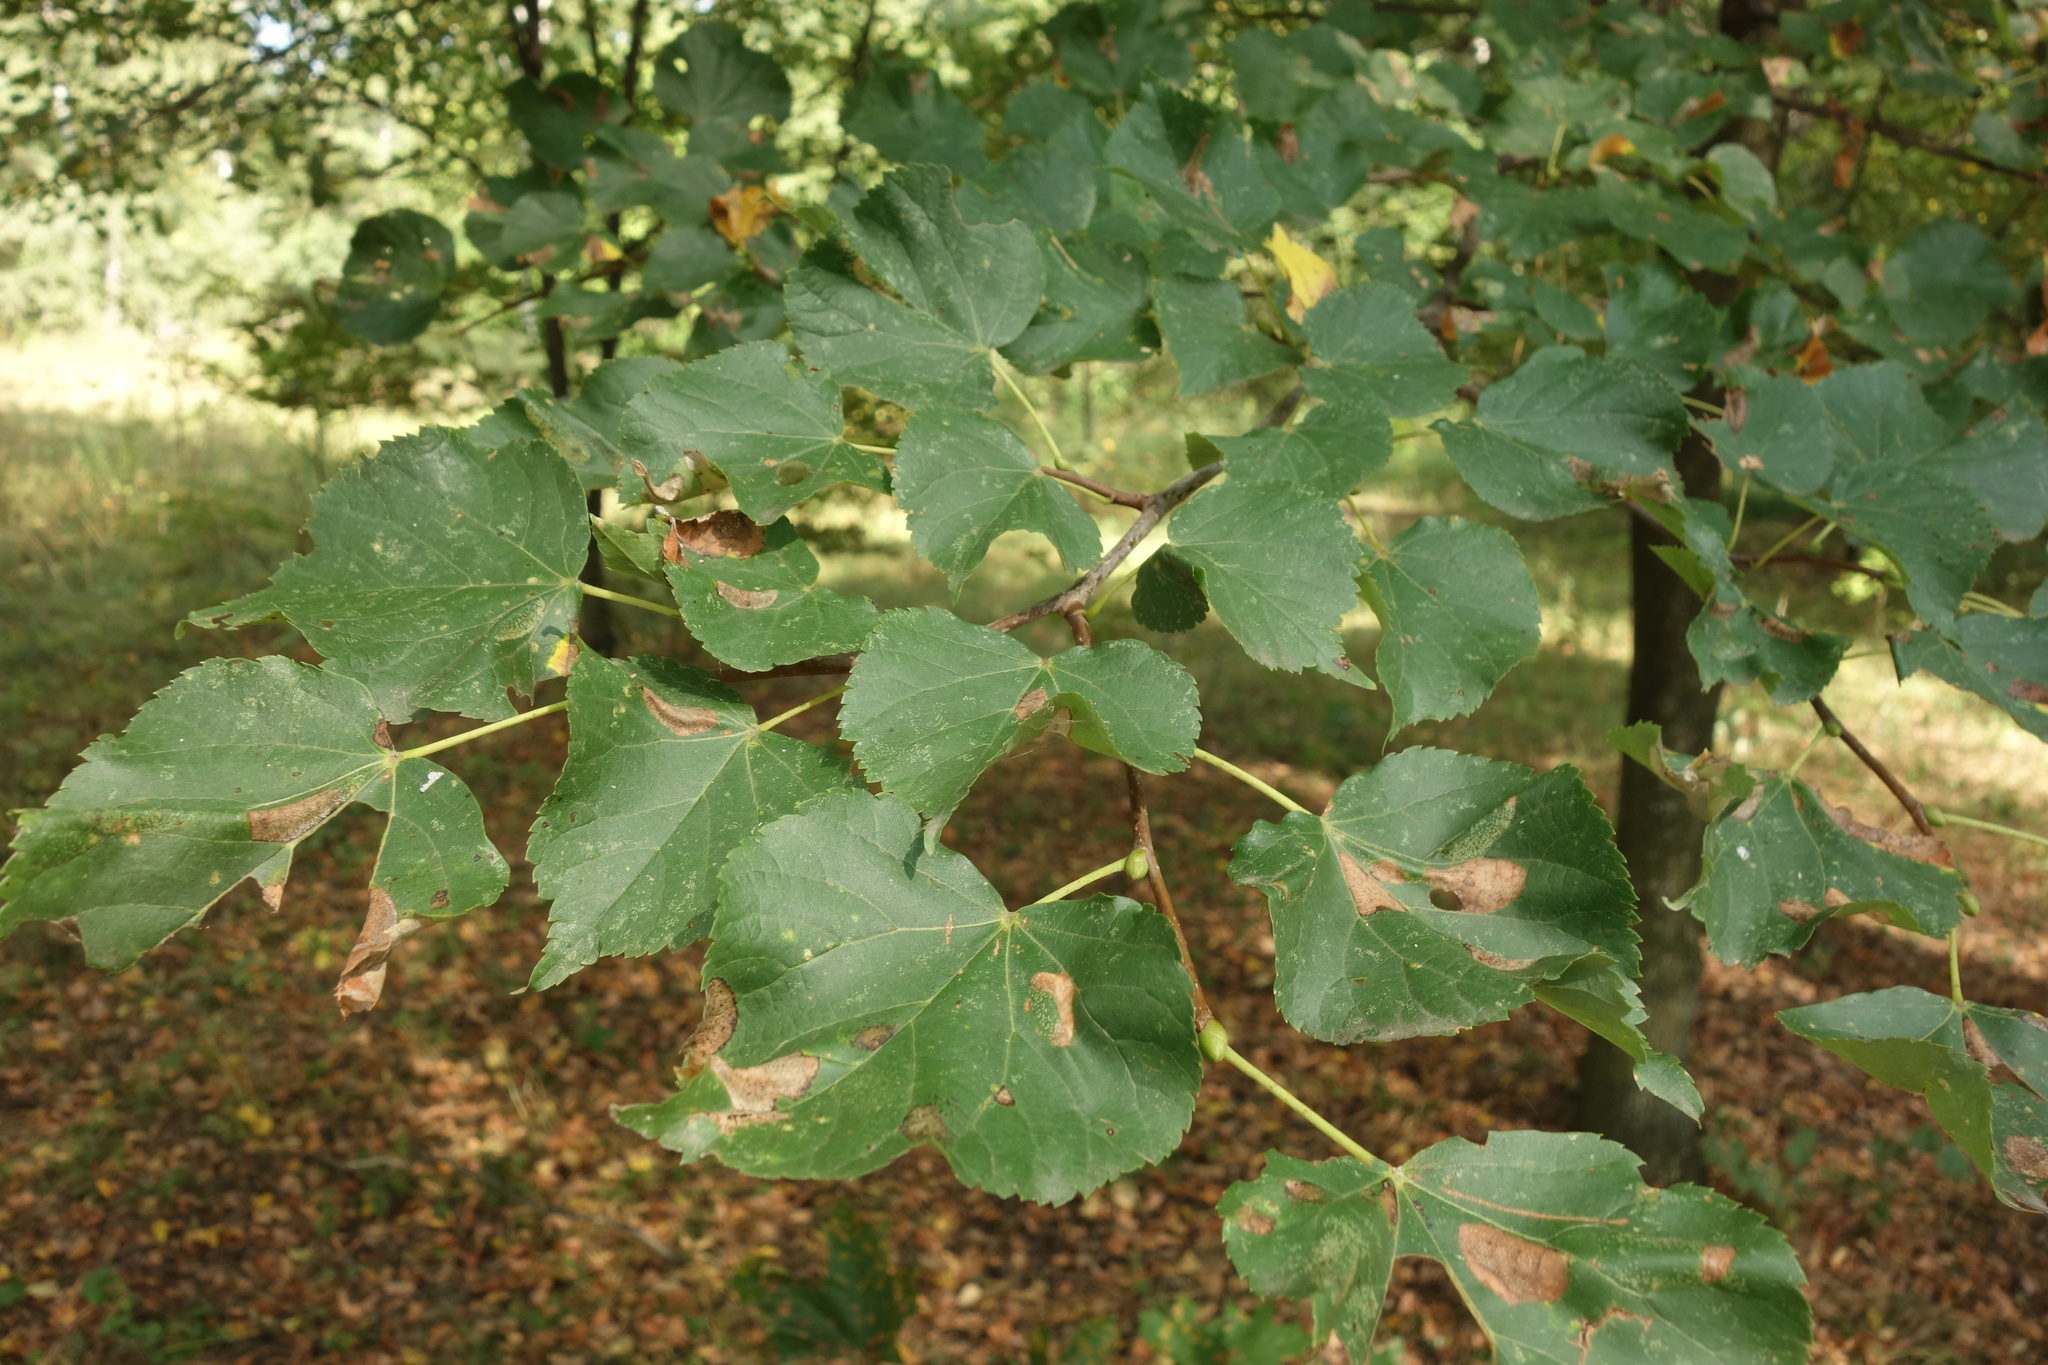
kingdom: Plantae
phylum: Tracheophyta
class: Magnoliopsida
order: Malvales
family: Malvaceae
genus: Tilia
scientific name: Tilia cordata
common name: Small-leaved lime
